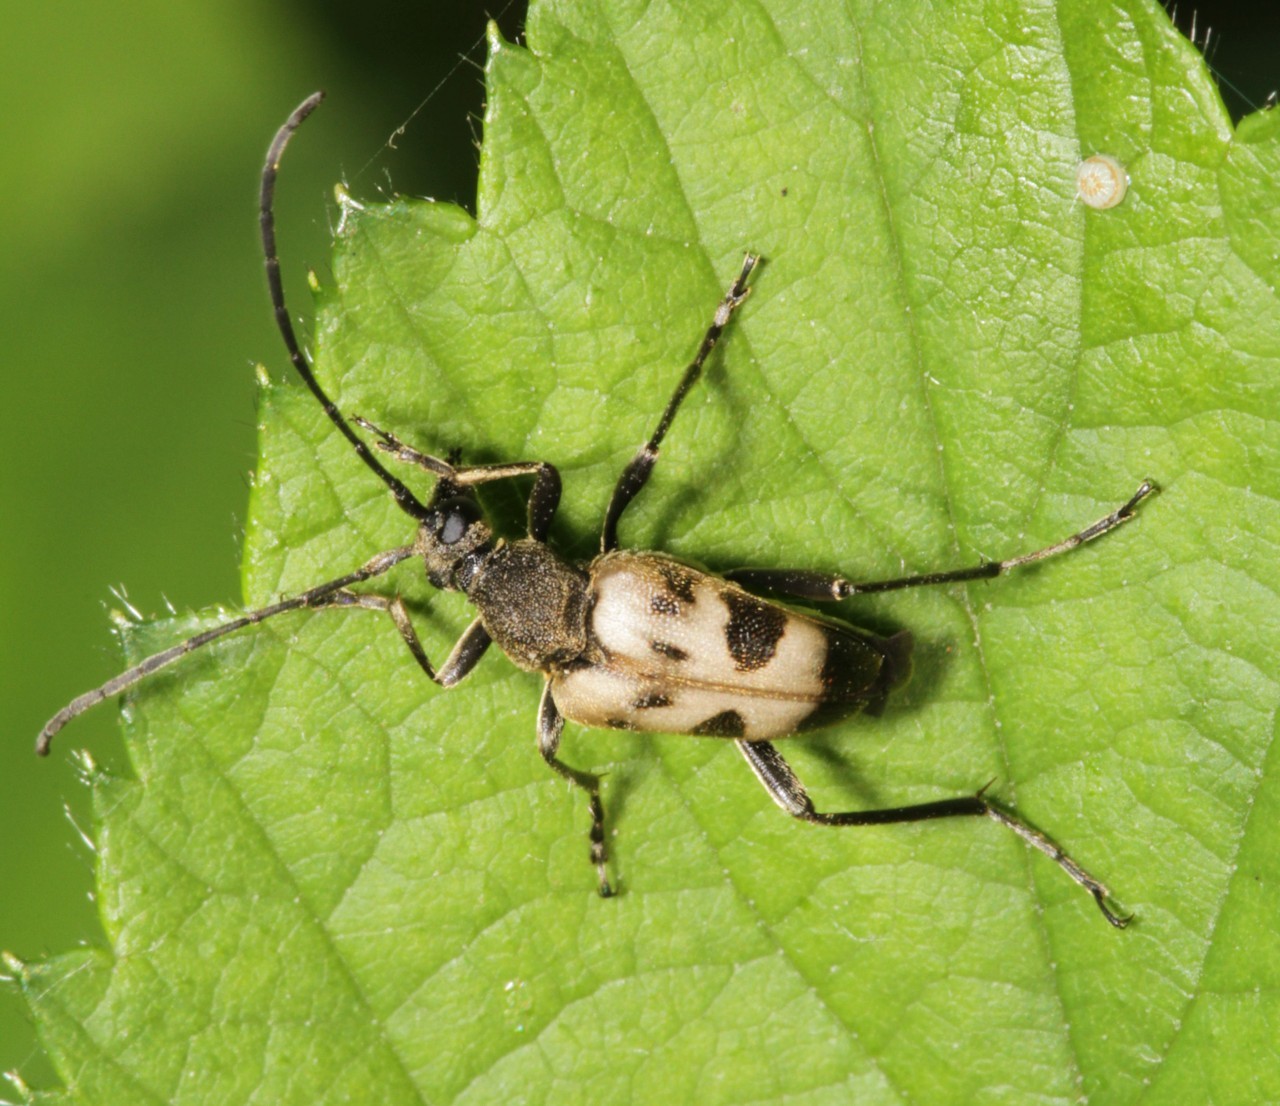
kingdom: Animalia
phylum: Arthropoda
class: Insecta
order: Coleoptera
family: Cerambycidae
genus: Pachytodes
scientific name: Pachytodes cerambyciformis
